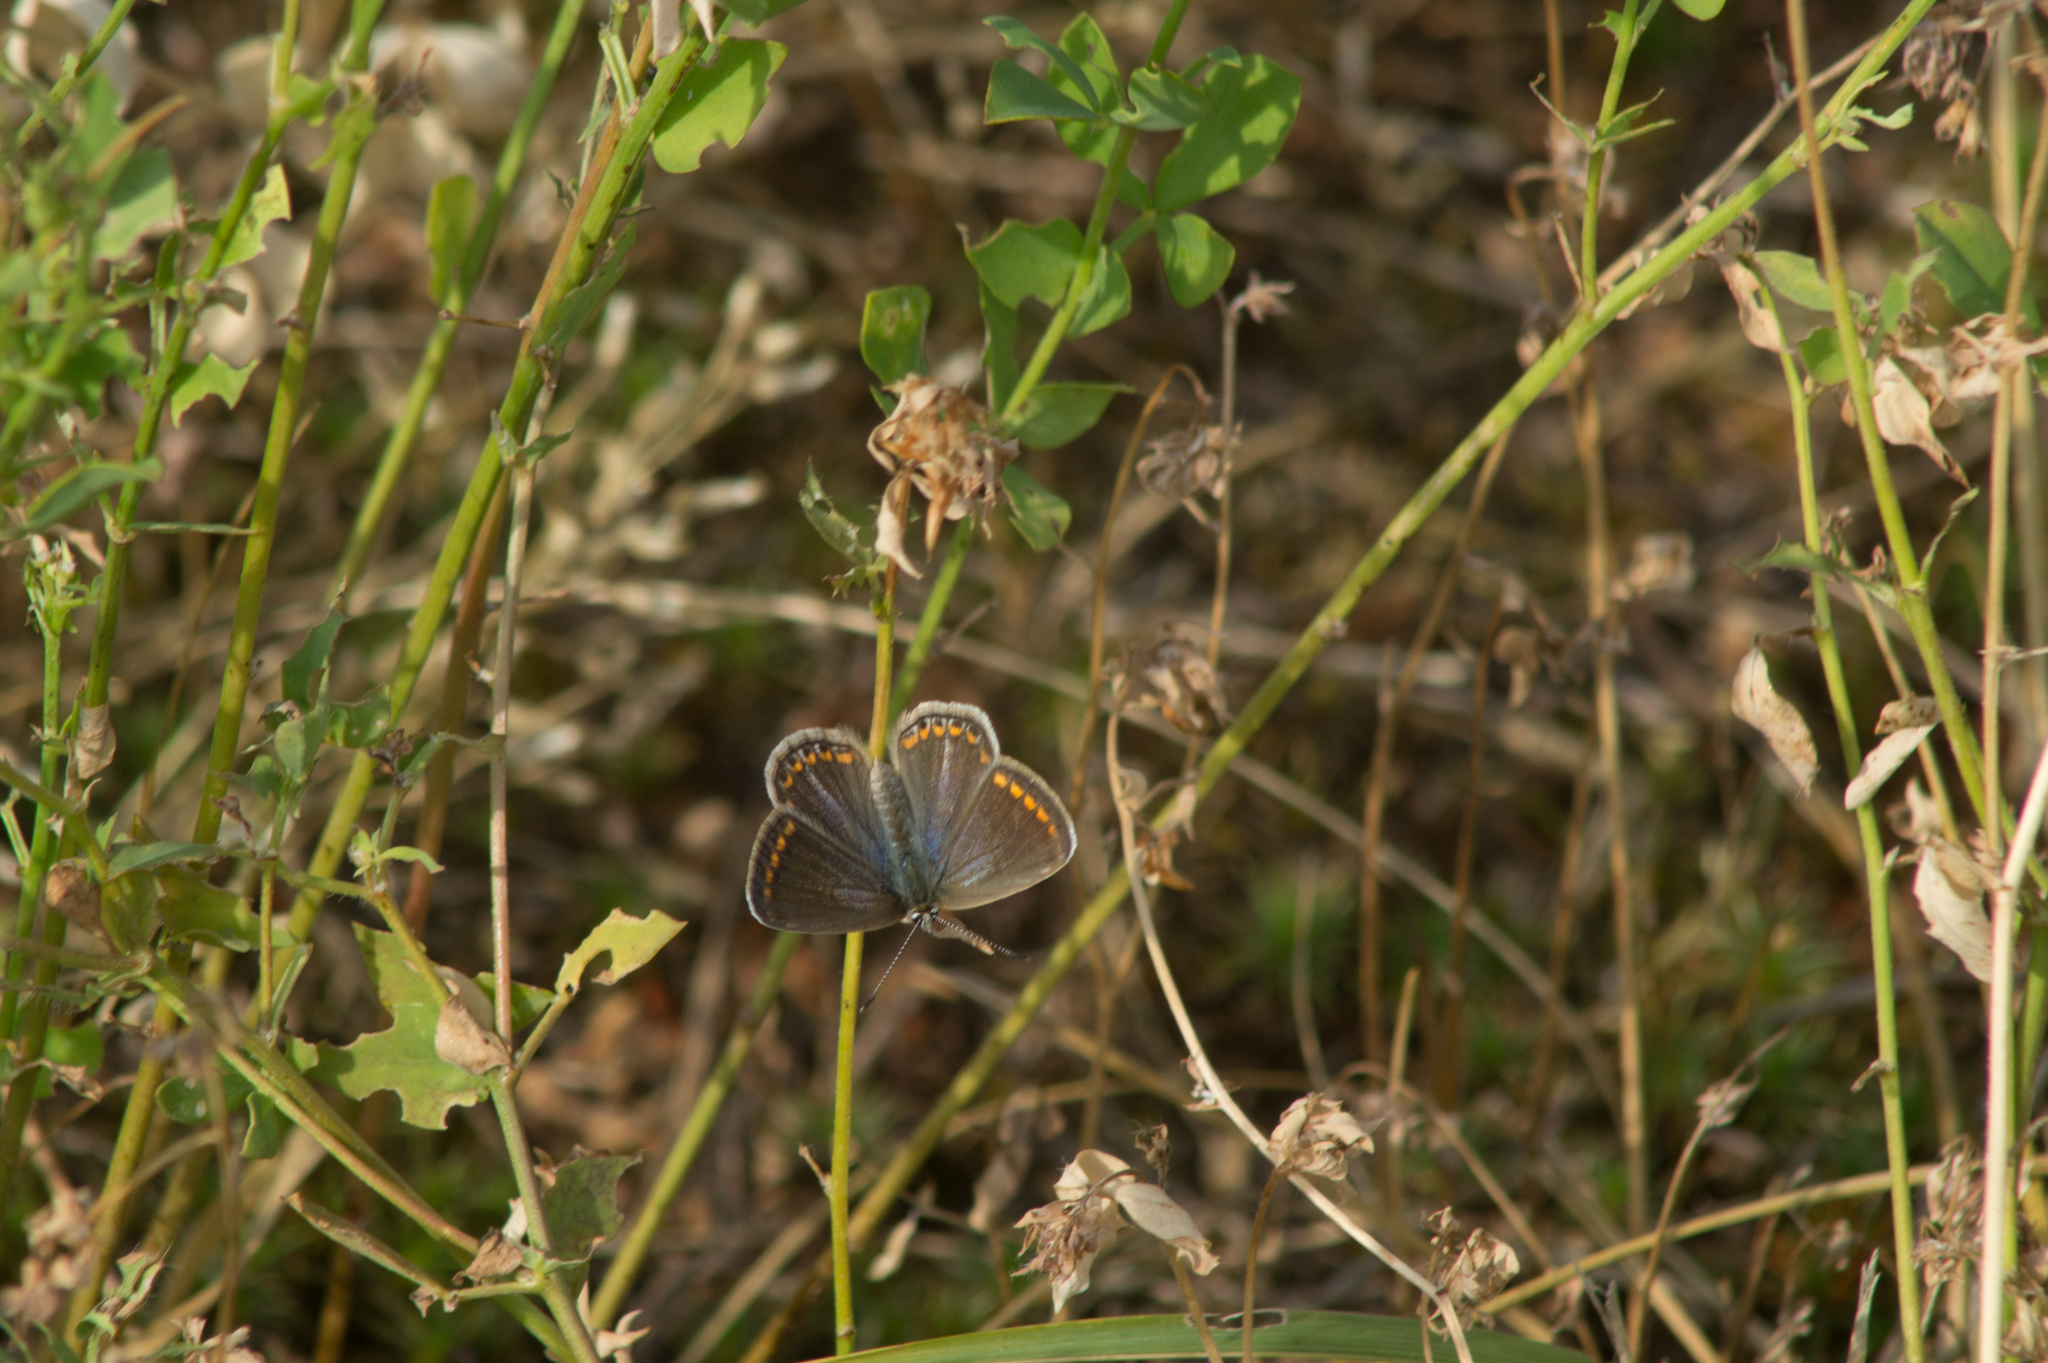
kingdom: Animalia
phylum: Arthropoda
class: Insecta
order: Lepidoptera
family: Lycaenidae
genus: Polyommatus
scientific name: Polyommatus icarus
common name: Common blue
